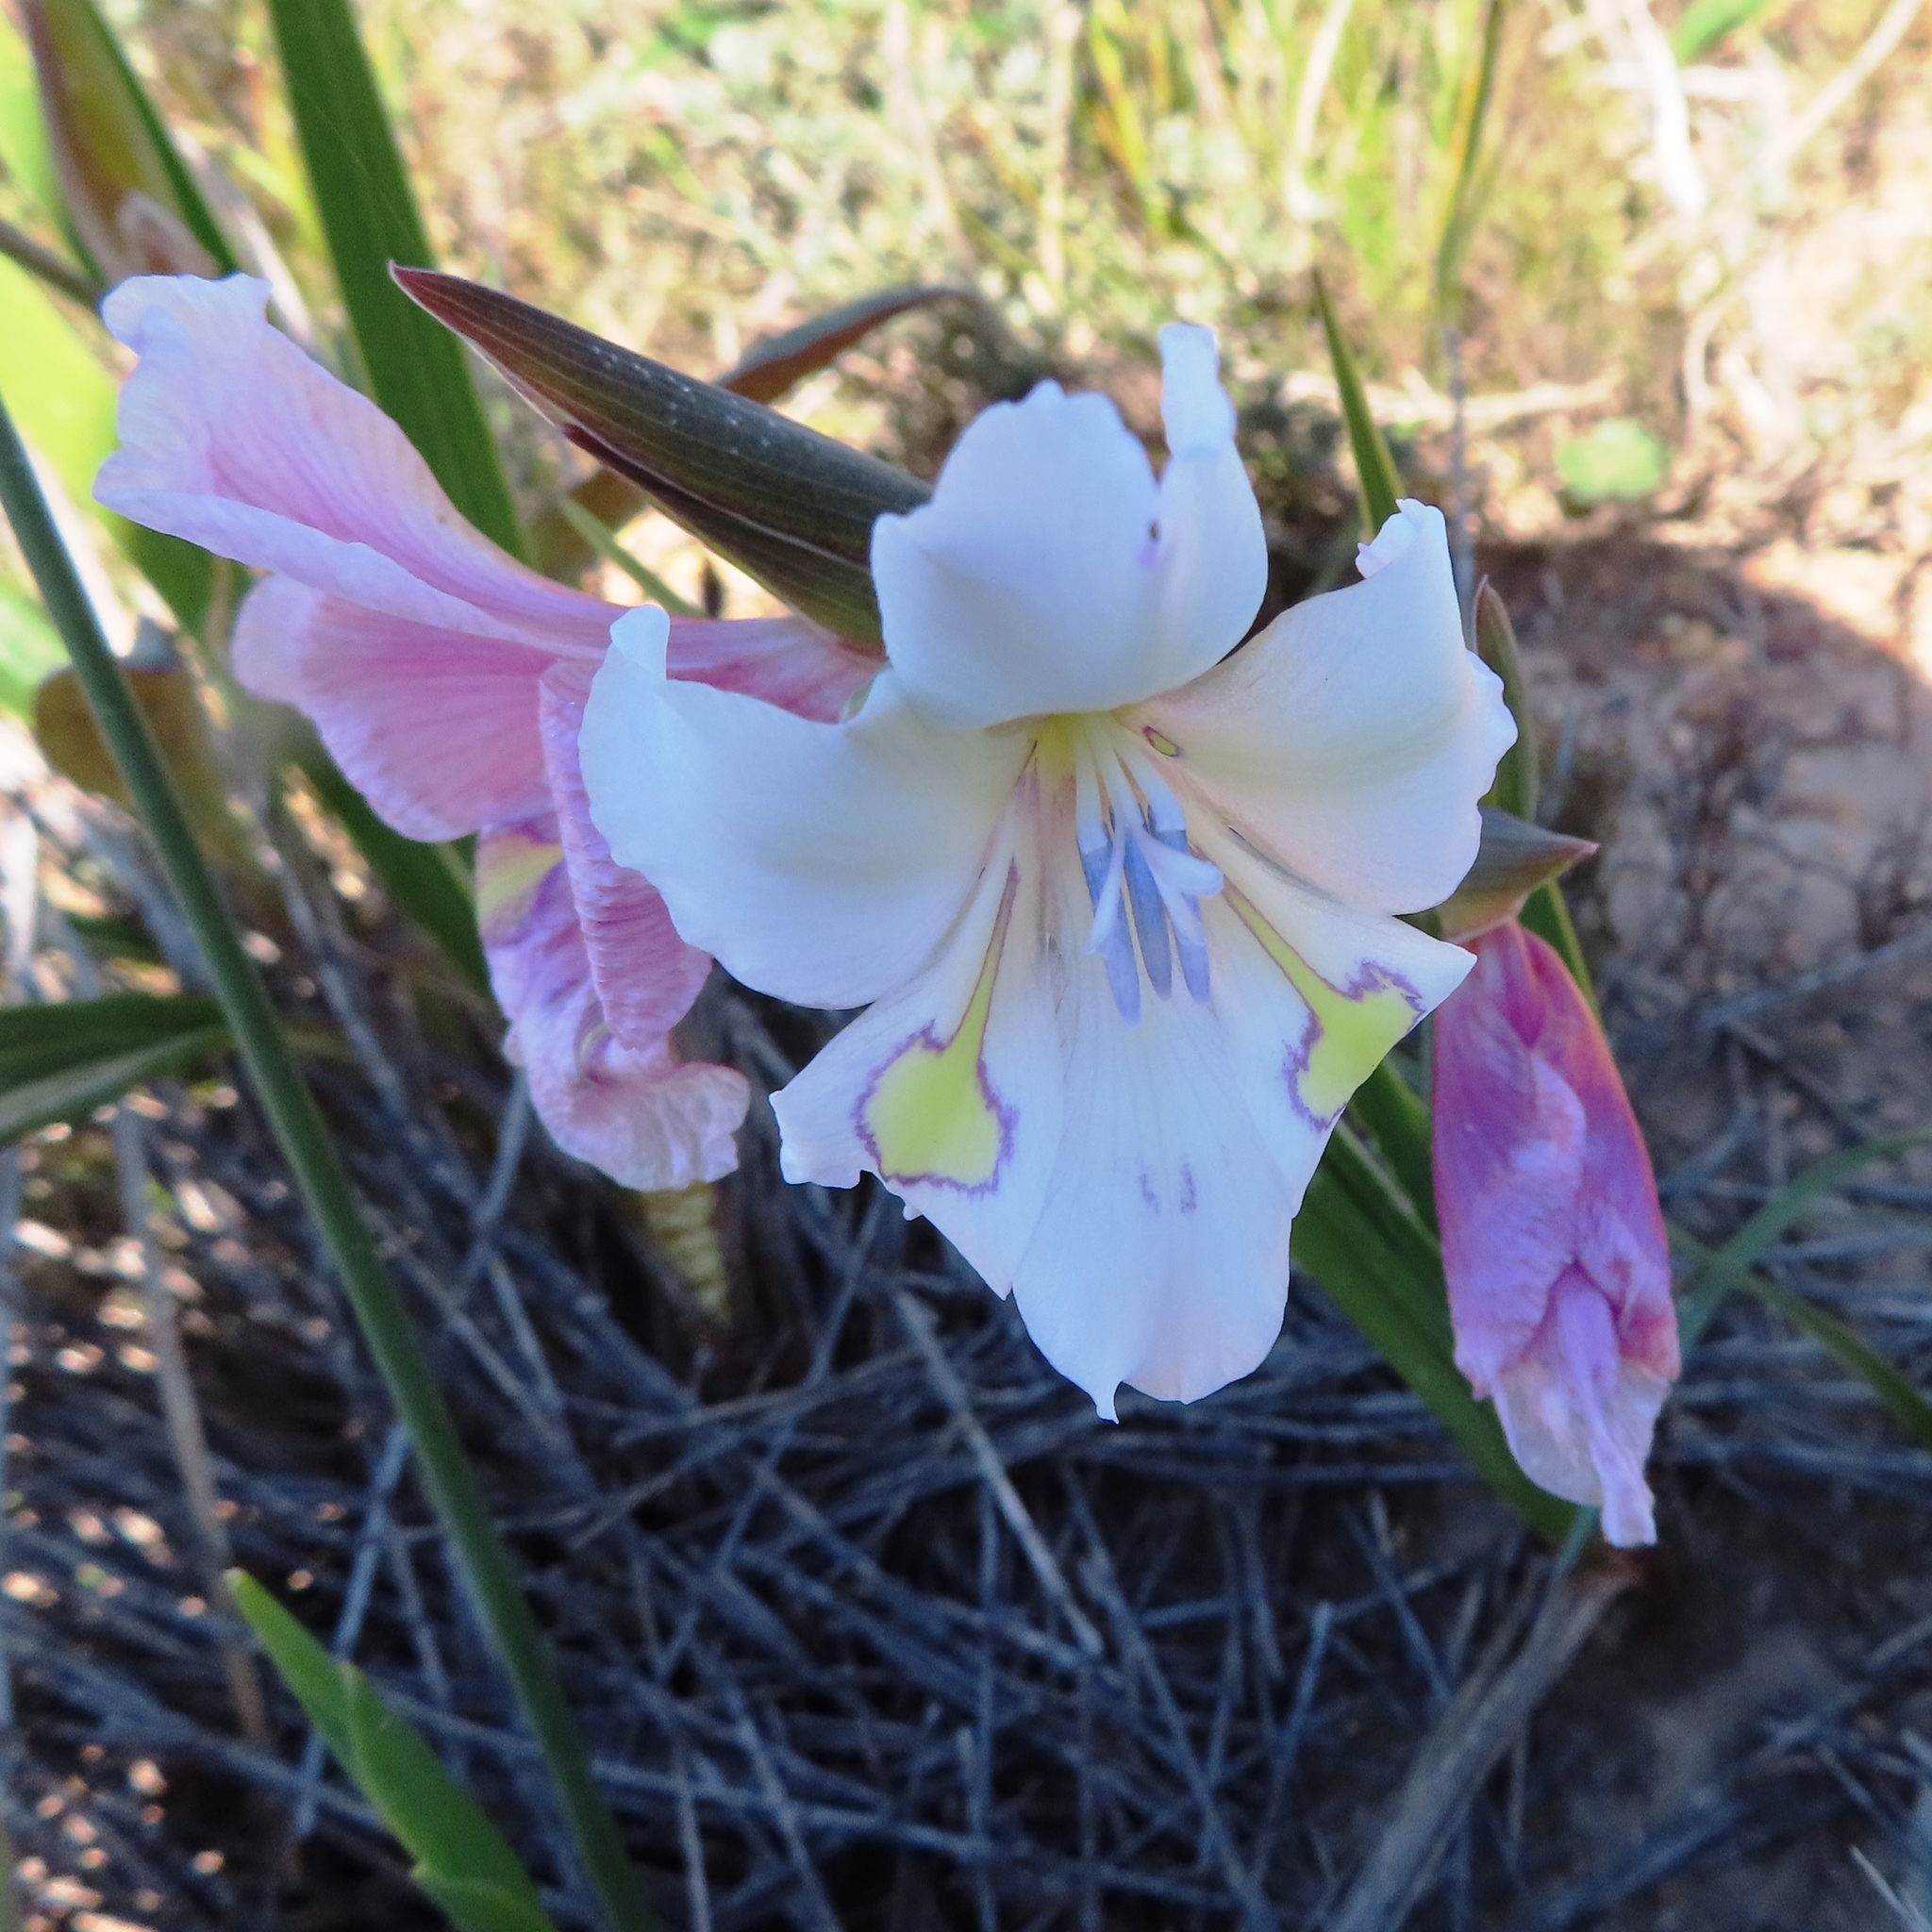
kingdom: Plantae
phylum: Tracheophyta
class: Liliopsida
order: Asparagales
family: Iridaceae
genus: Gladiolus
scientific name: Gladiolus rudis
